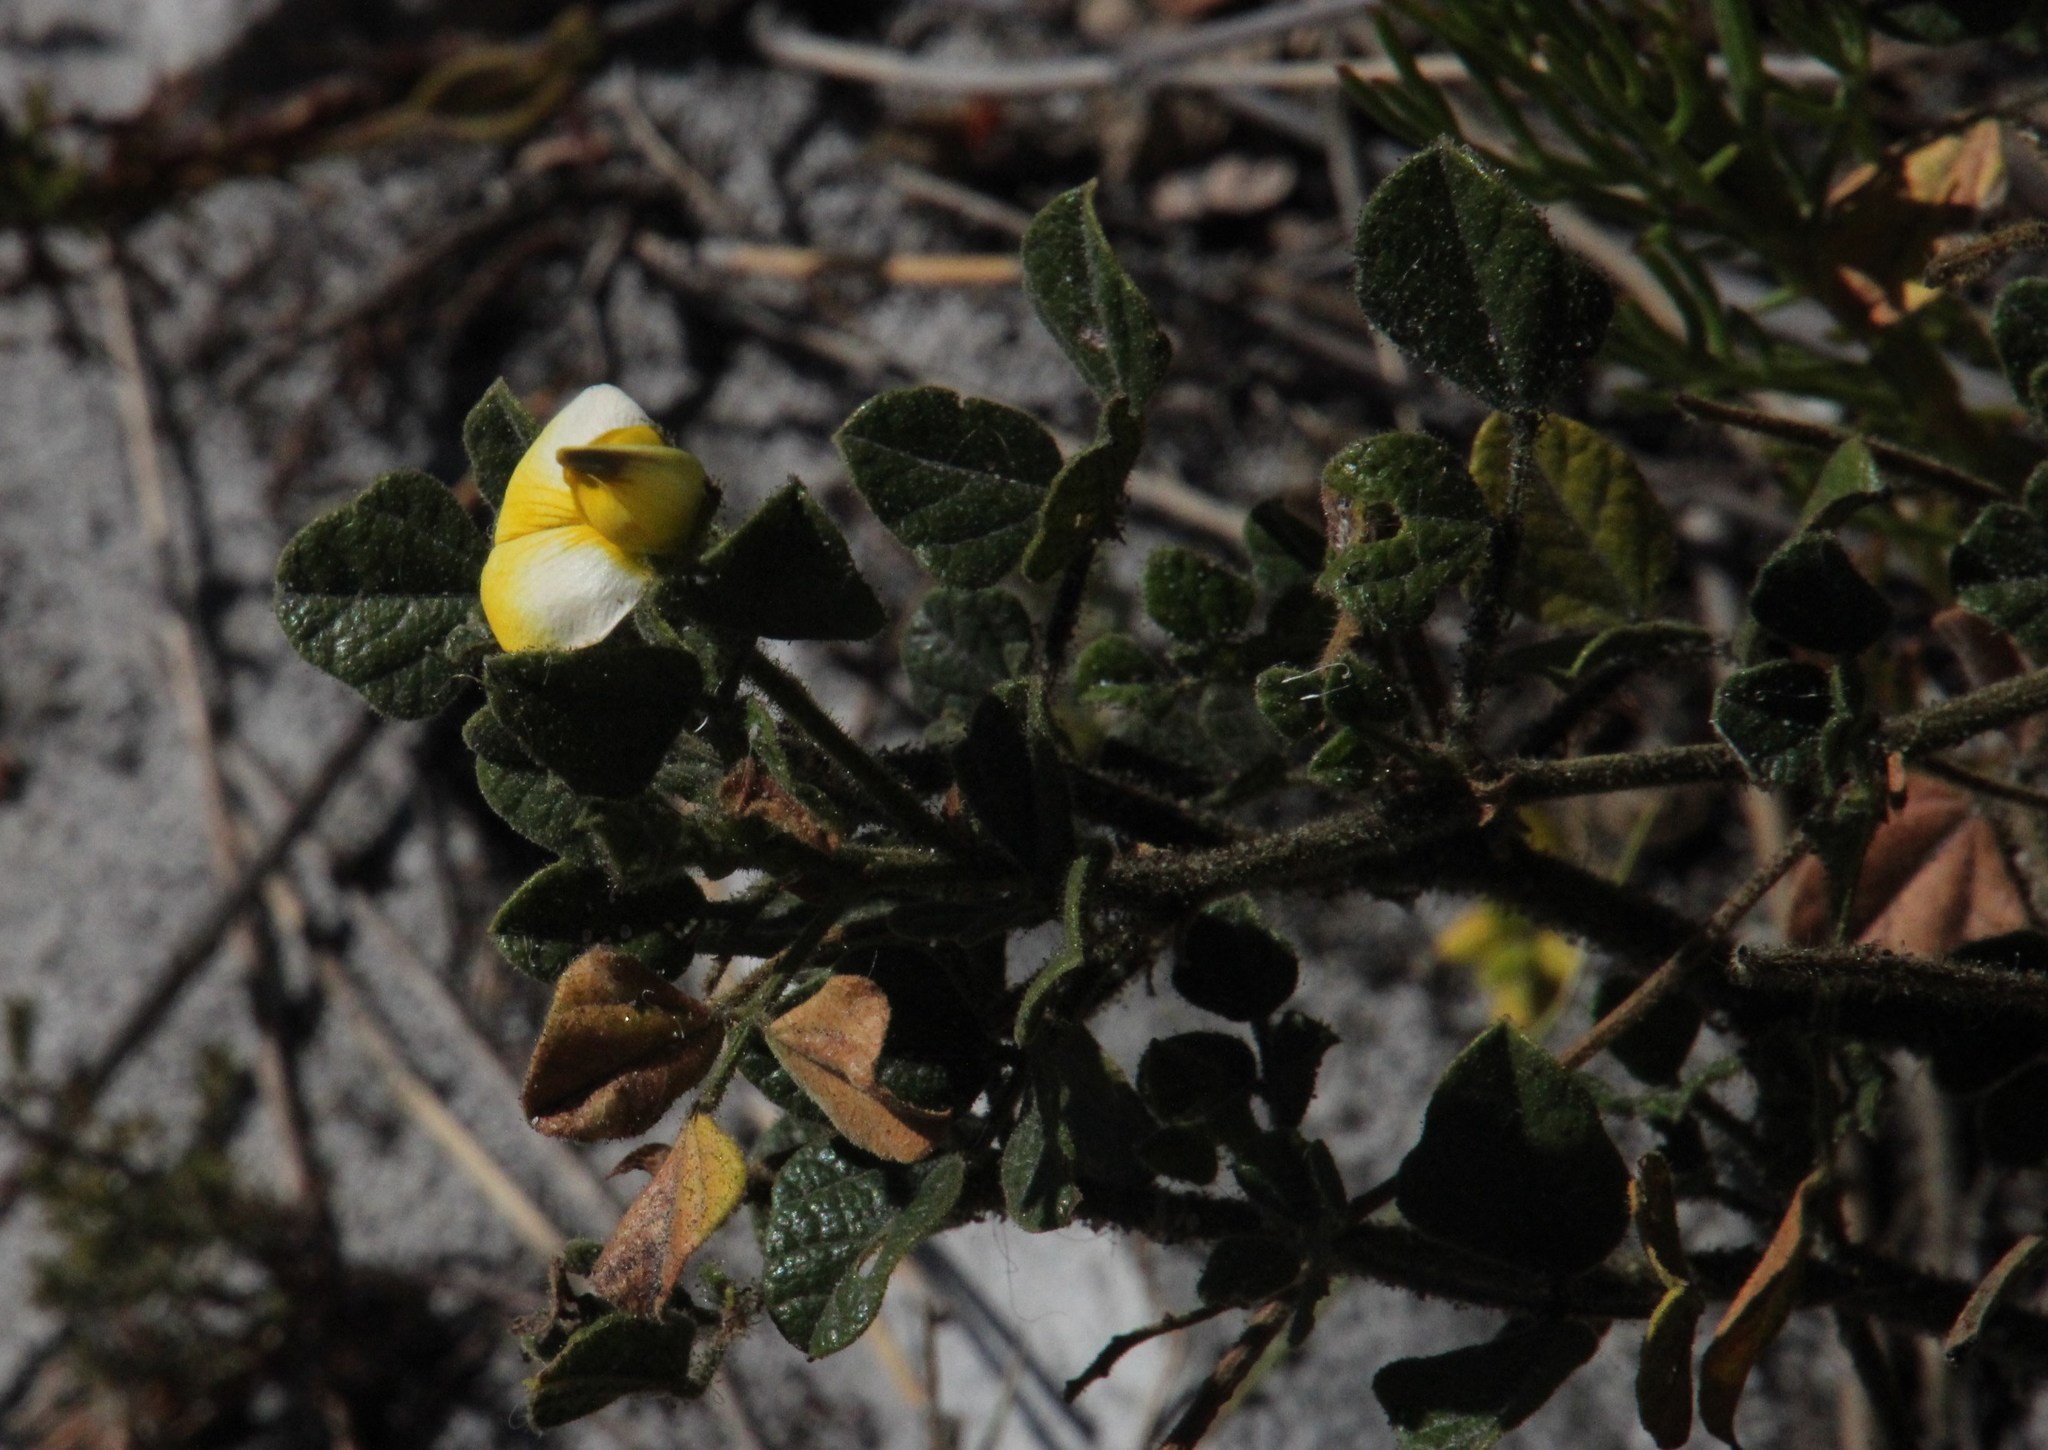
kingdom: Plantae
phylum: Tracheophyta
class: Magnoliopsida
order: Fabales
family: Fabaceae
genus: Bolusafra
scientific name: Bolusafra bituminosa
